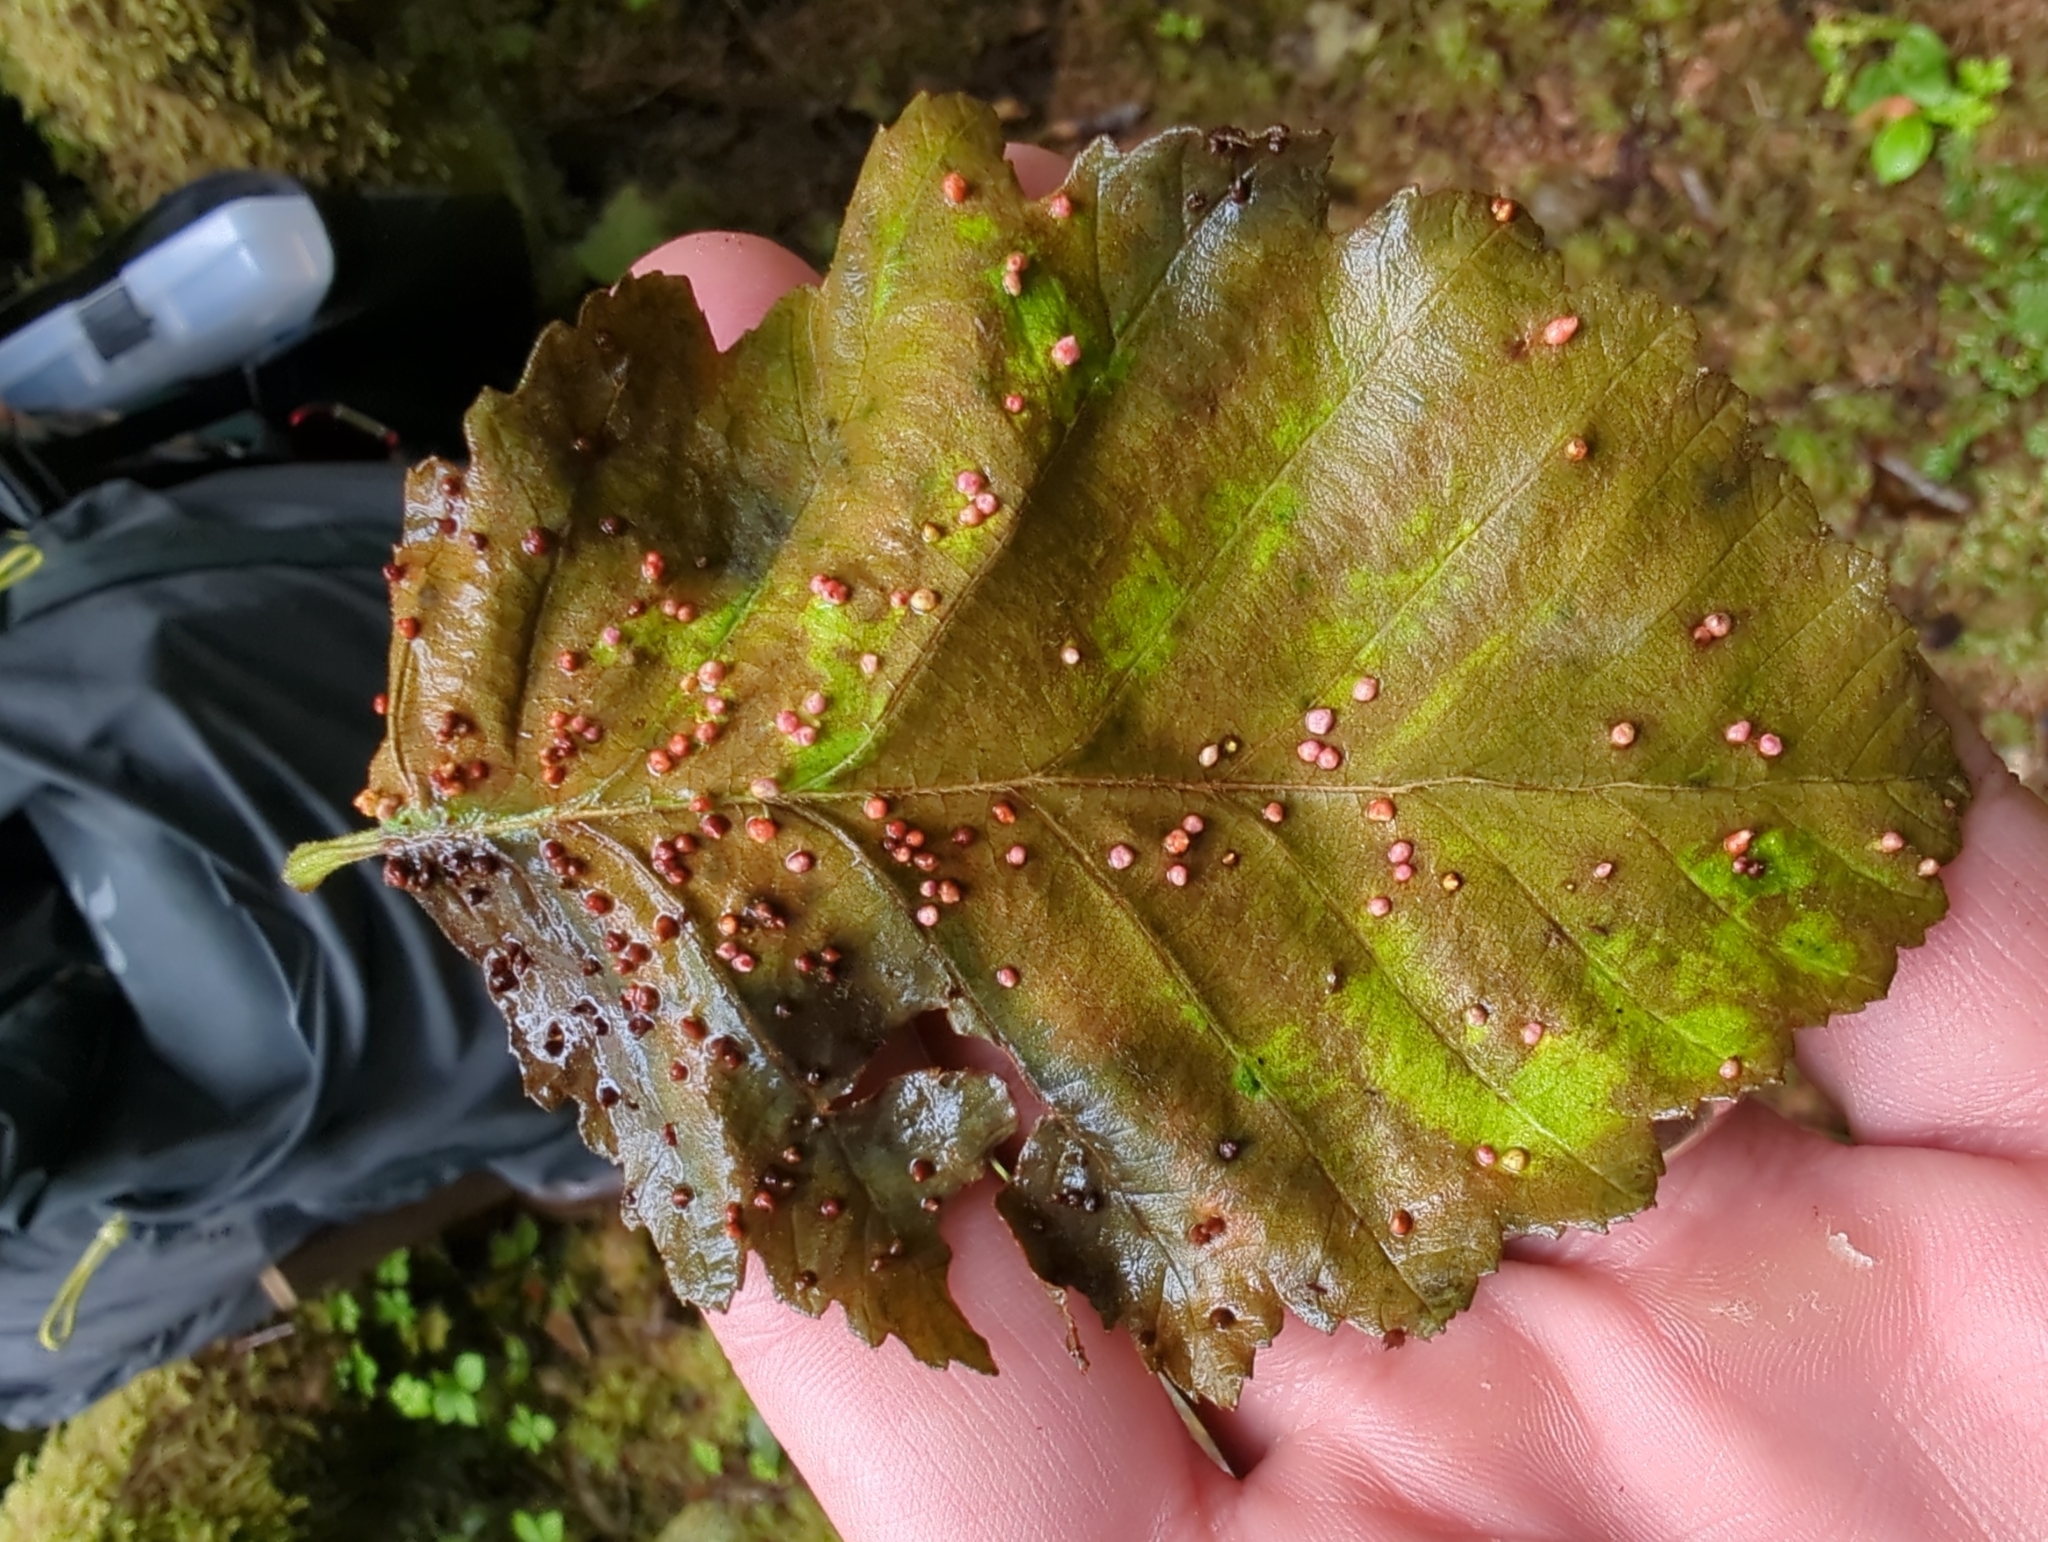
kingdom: Animalia
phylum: Arthropoda
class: Arachnida
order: Trombidiformes
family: Eriophyidae
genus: Eriophyes
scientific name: Eriophyes laevis
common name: Alder leaf gall mite
